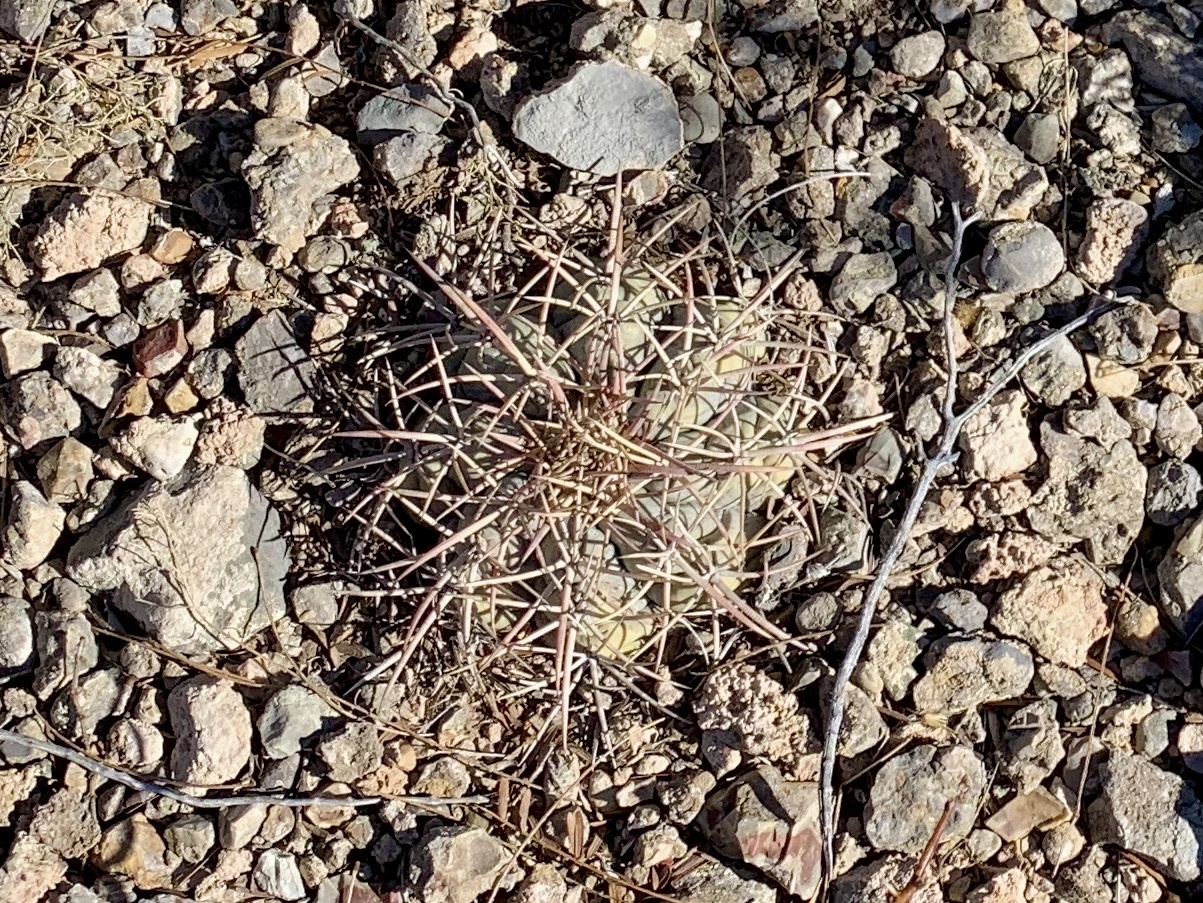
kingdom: Plantae
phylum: Tracheophyta
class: Magnoliopsida
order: Caryophyllales
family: Cactaceae
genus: Echinocactus
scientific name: Echinocactus horizonthalonius
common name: Devilshead
